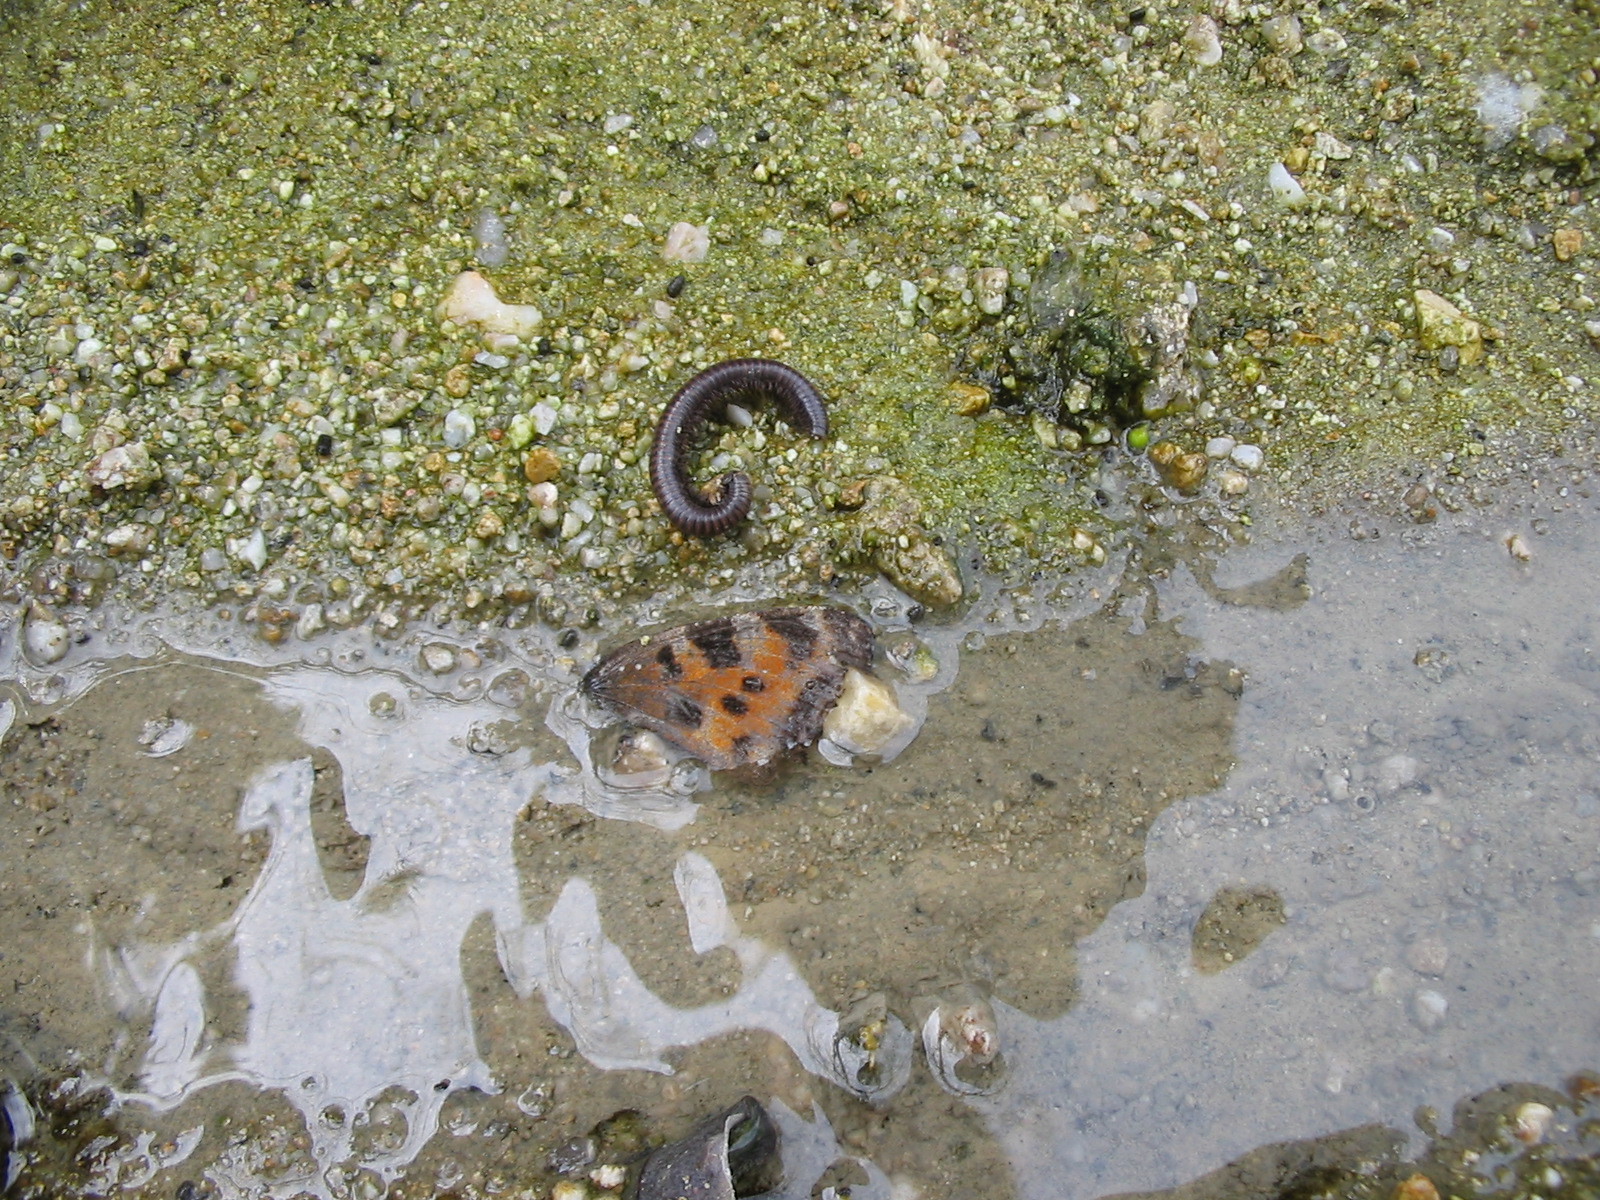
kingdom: Animalia
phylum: Arthropoda
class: Insecta
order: Lepidoptera
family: Nymphalidae
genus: Nymphalis
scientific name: Nymphalis polychloros
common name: Large tortoiseshell
